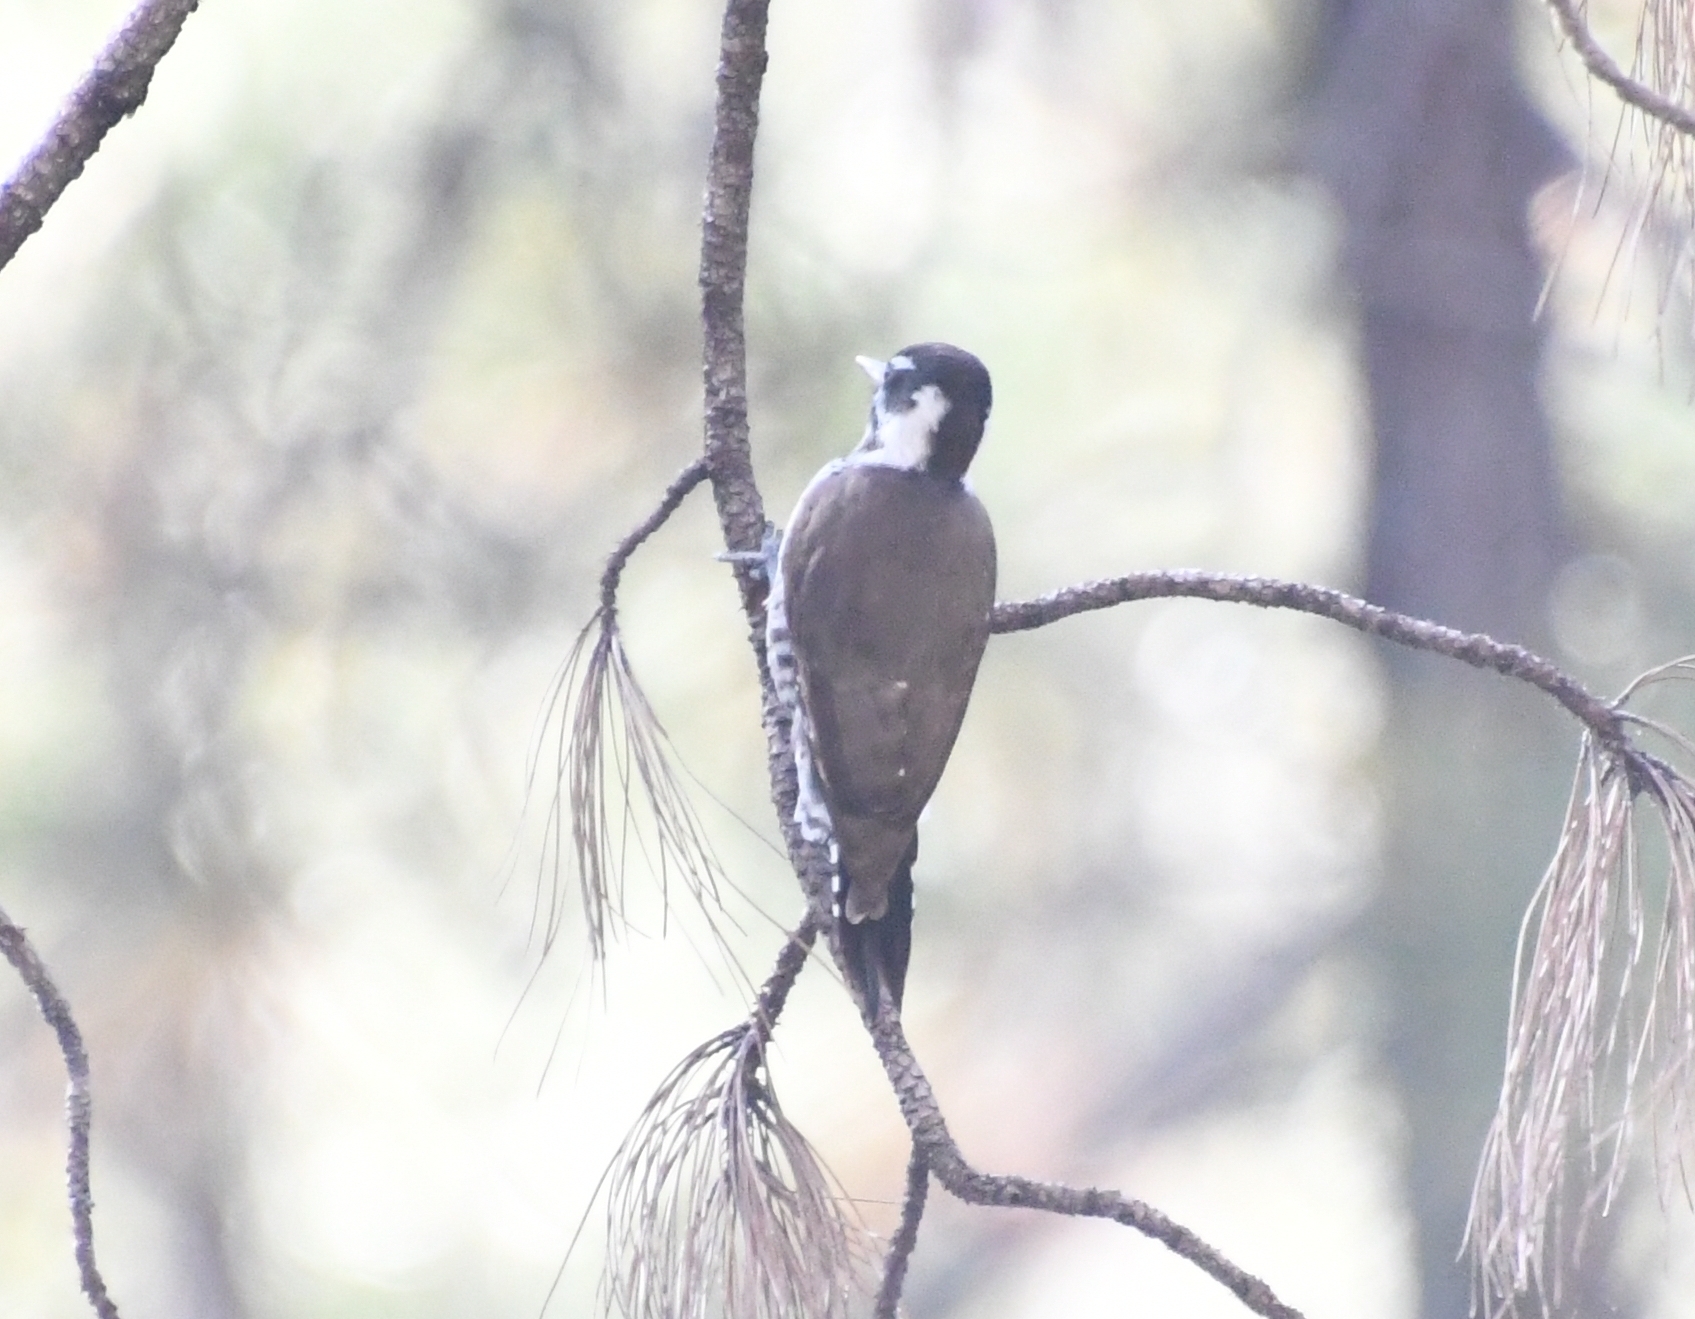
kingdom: Animalia
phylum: Chordata
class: Aves
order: Piciformes
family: Picidae
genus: Leuconotopicus
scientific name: Leuconotopicus arizonae
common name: Arizona woodpecker
